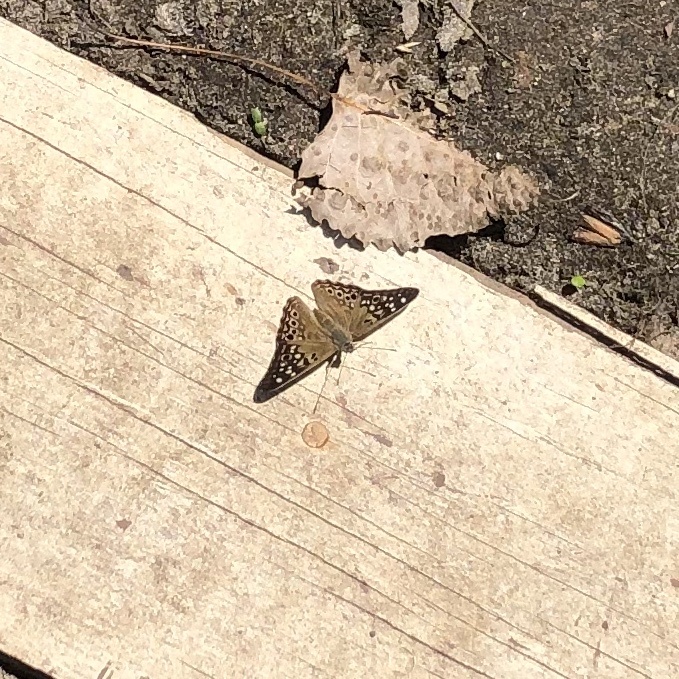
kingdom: Animalia
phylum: Arthropoda
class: Insecta
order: Lepidoptera
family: Nymphalidae
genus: Asterocampa
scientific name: Asterocampa celtis
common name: Hackberry emperor
